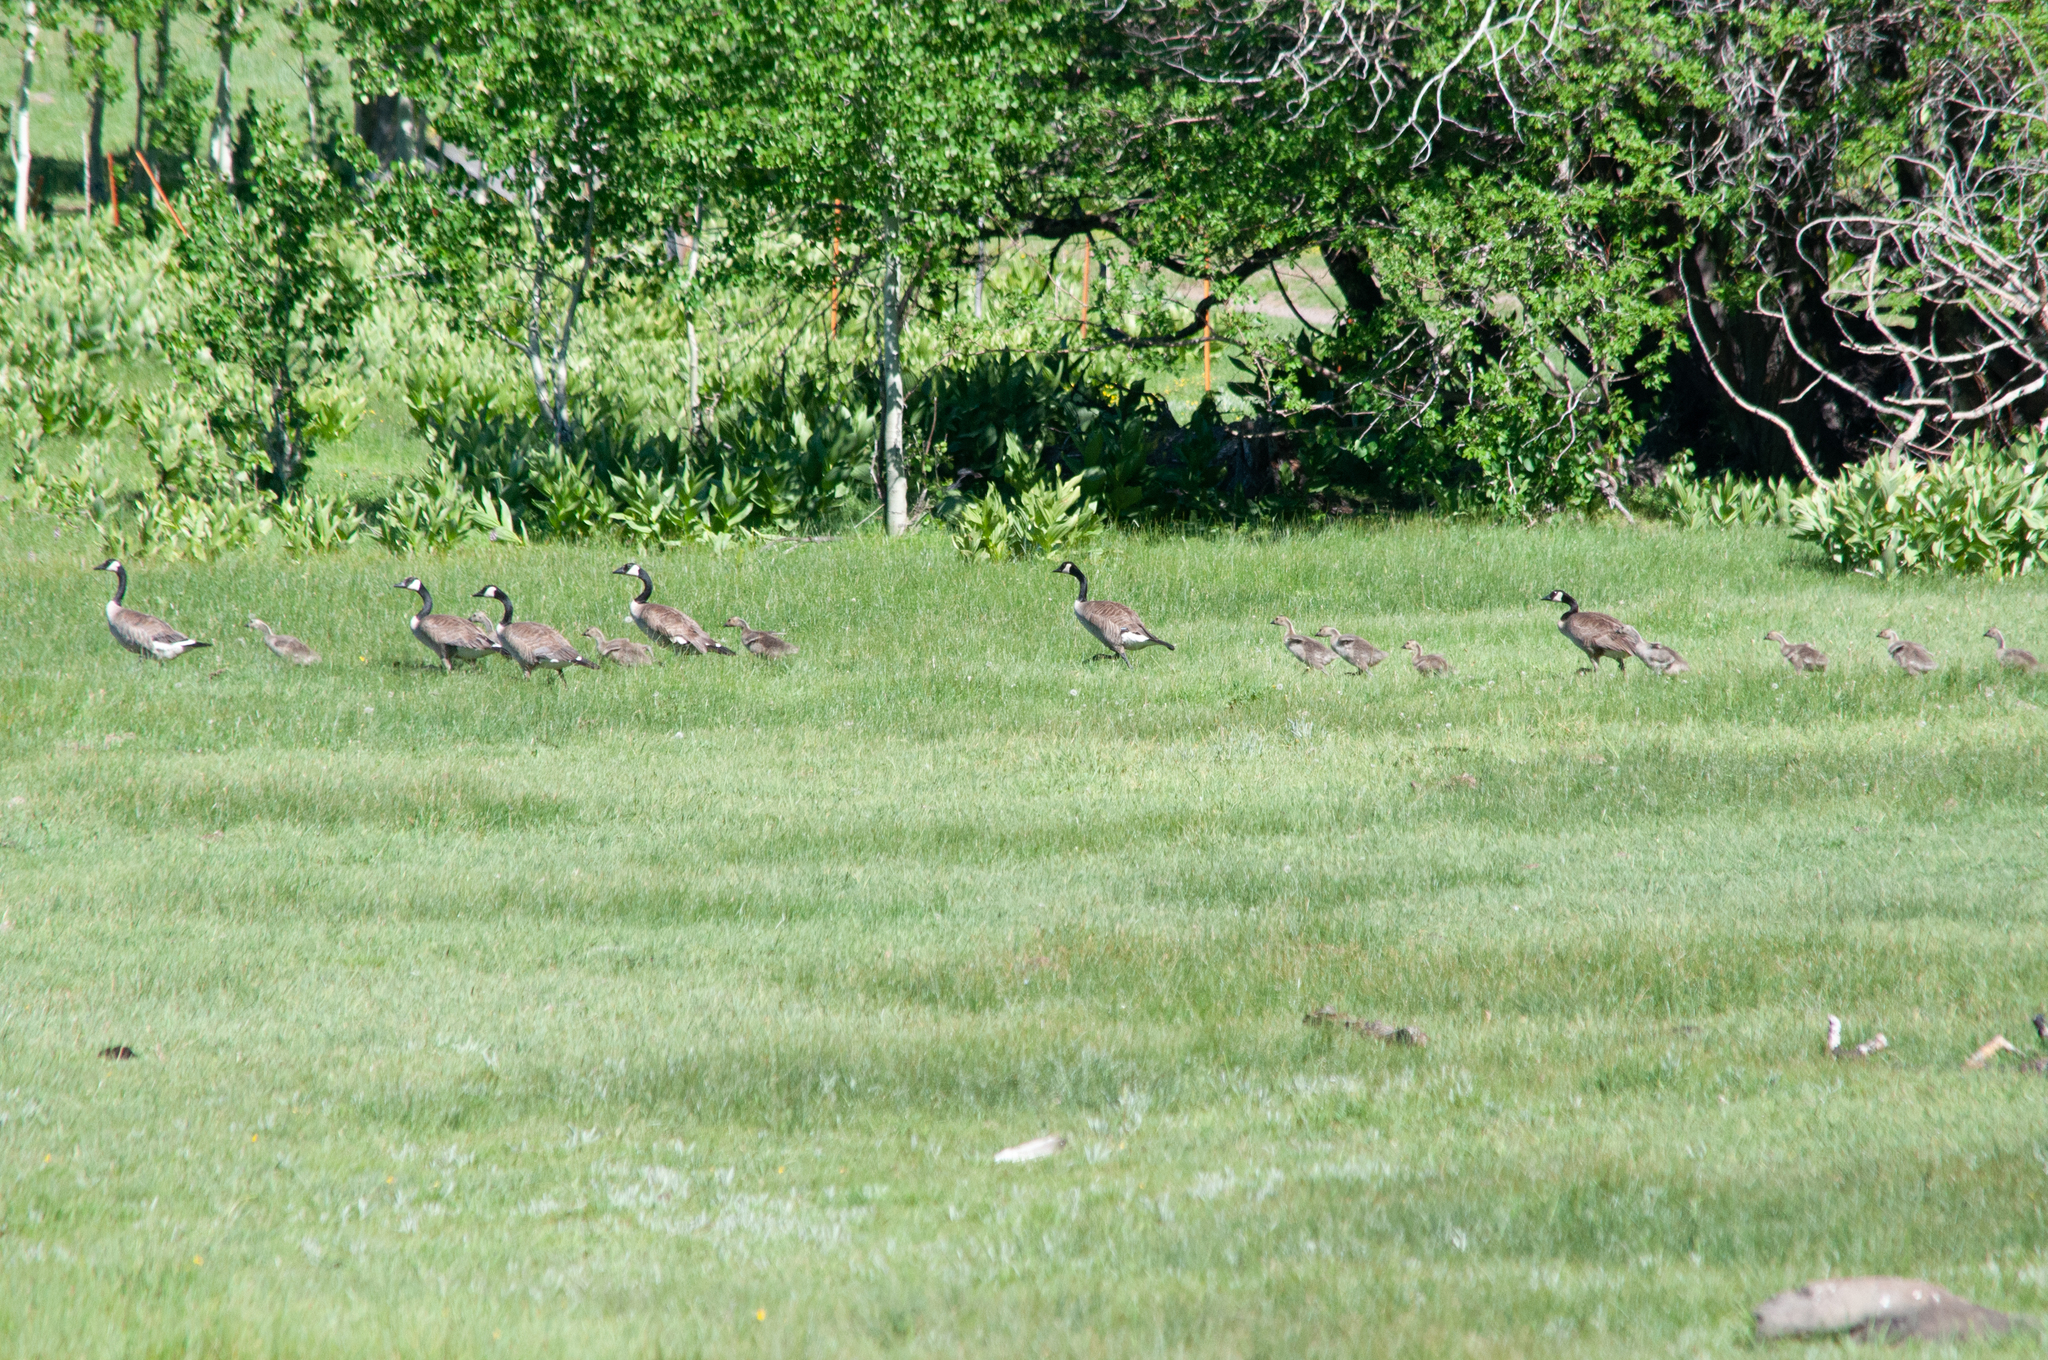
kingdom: Animalia
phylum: Chordata
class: Aves
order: Anseriformes
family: Anatidae
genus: Branta
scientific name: Branta canadensis
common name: Canada goose
